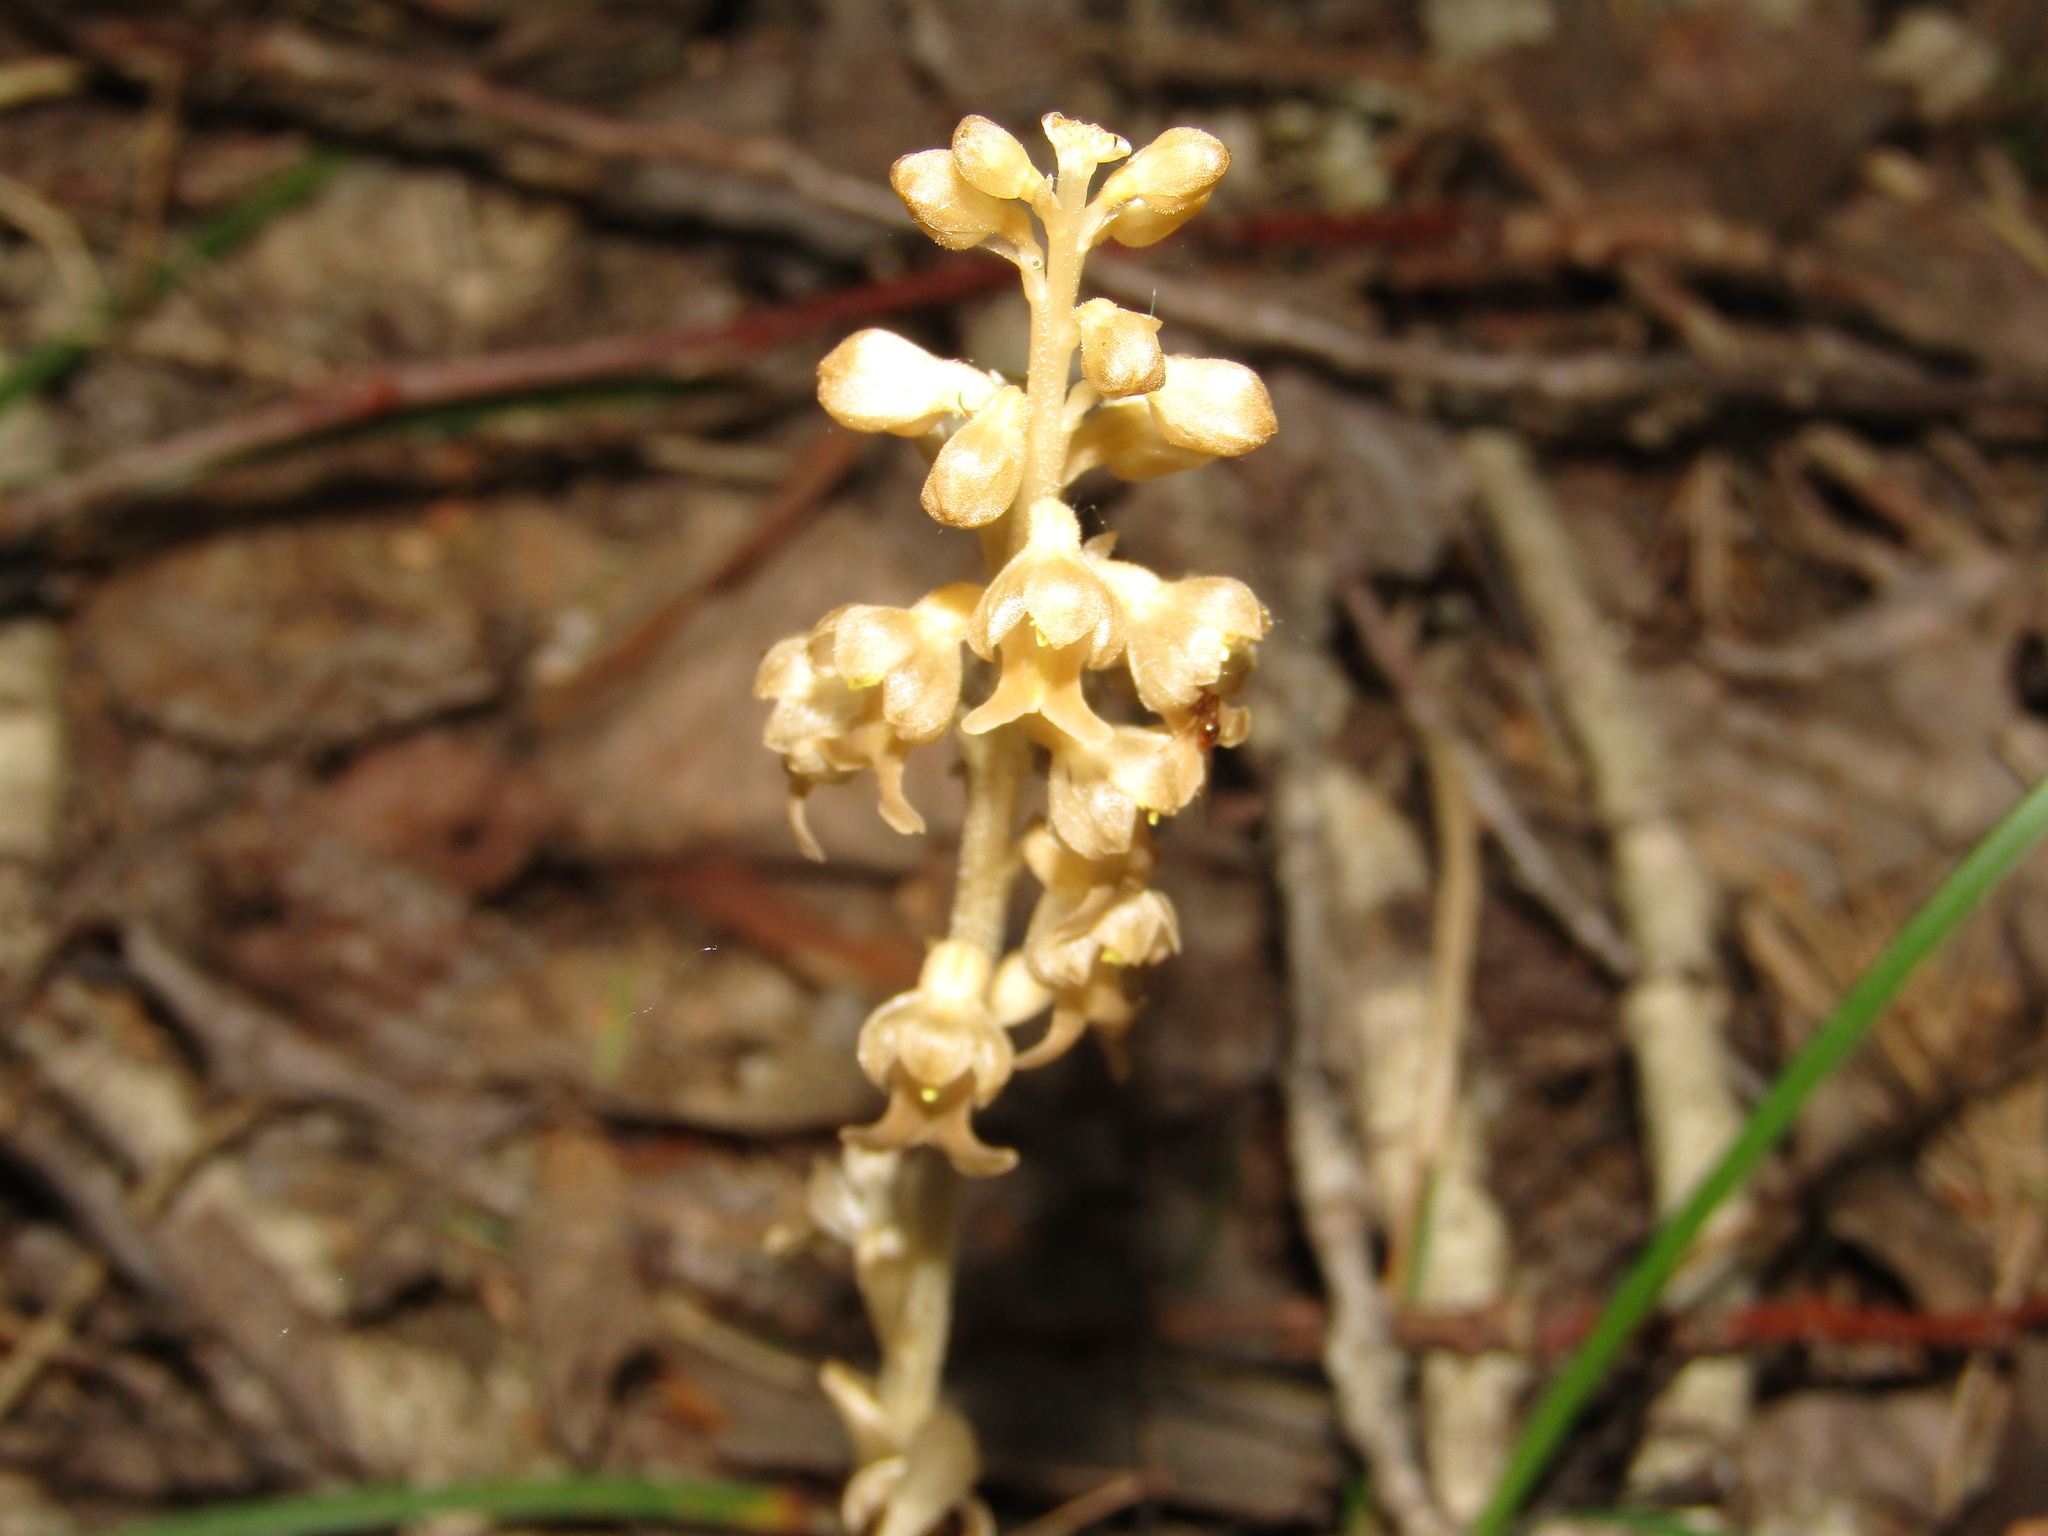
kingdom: Plantae
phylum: Tracheophyta
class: Liliopsida
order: Asparagales
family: Orchidaceae
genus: Neottia
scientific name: Neottia nidus-avis
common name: Bird's-nest orchid
